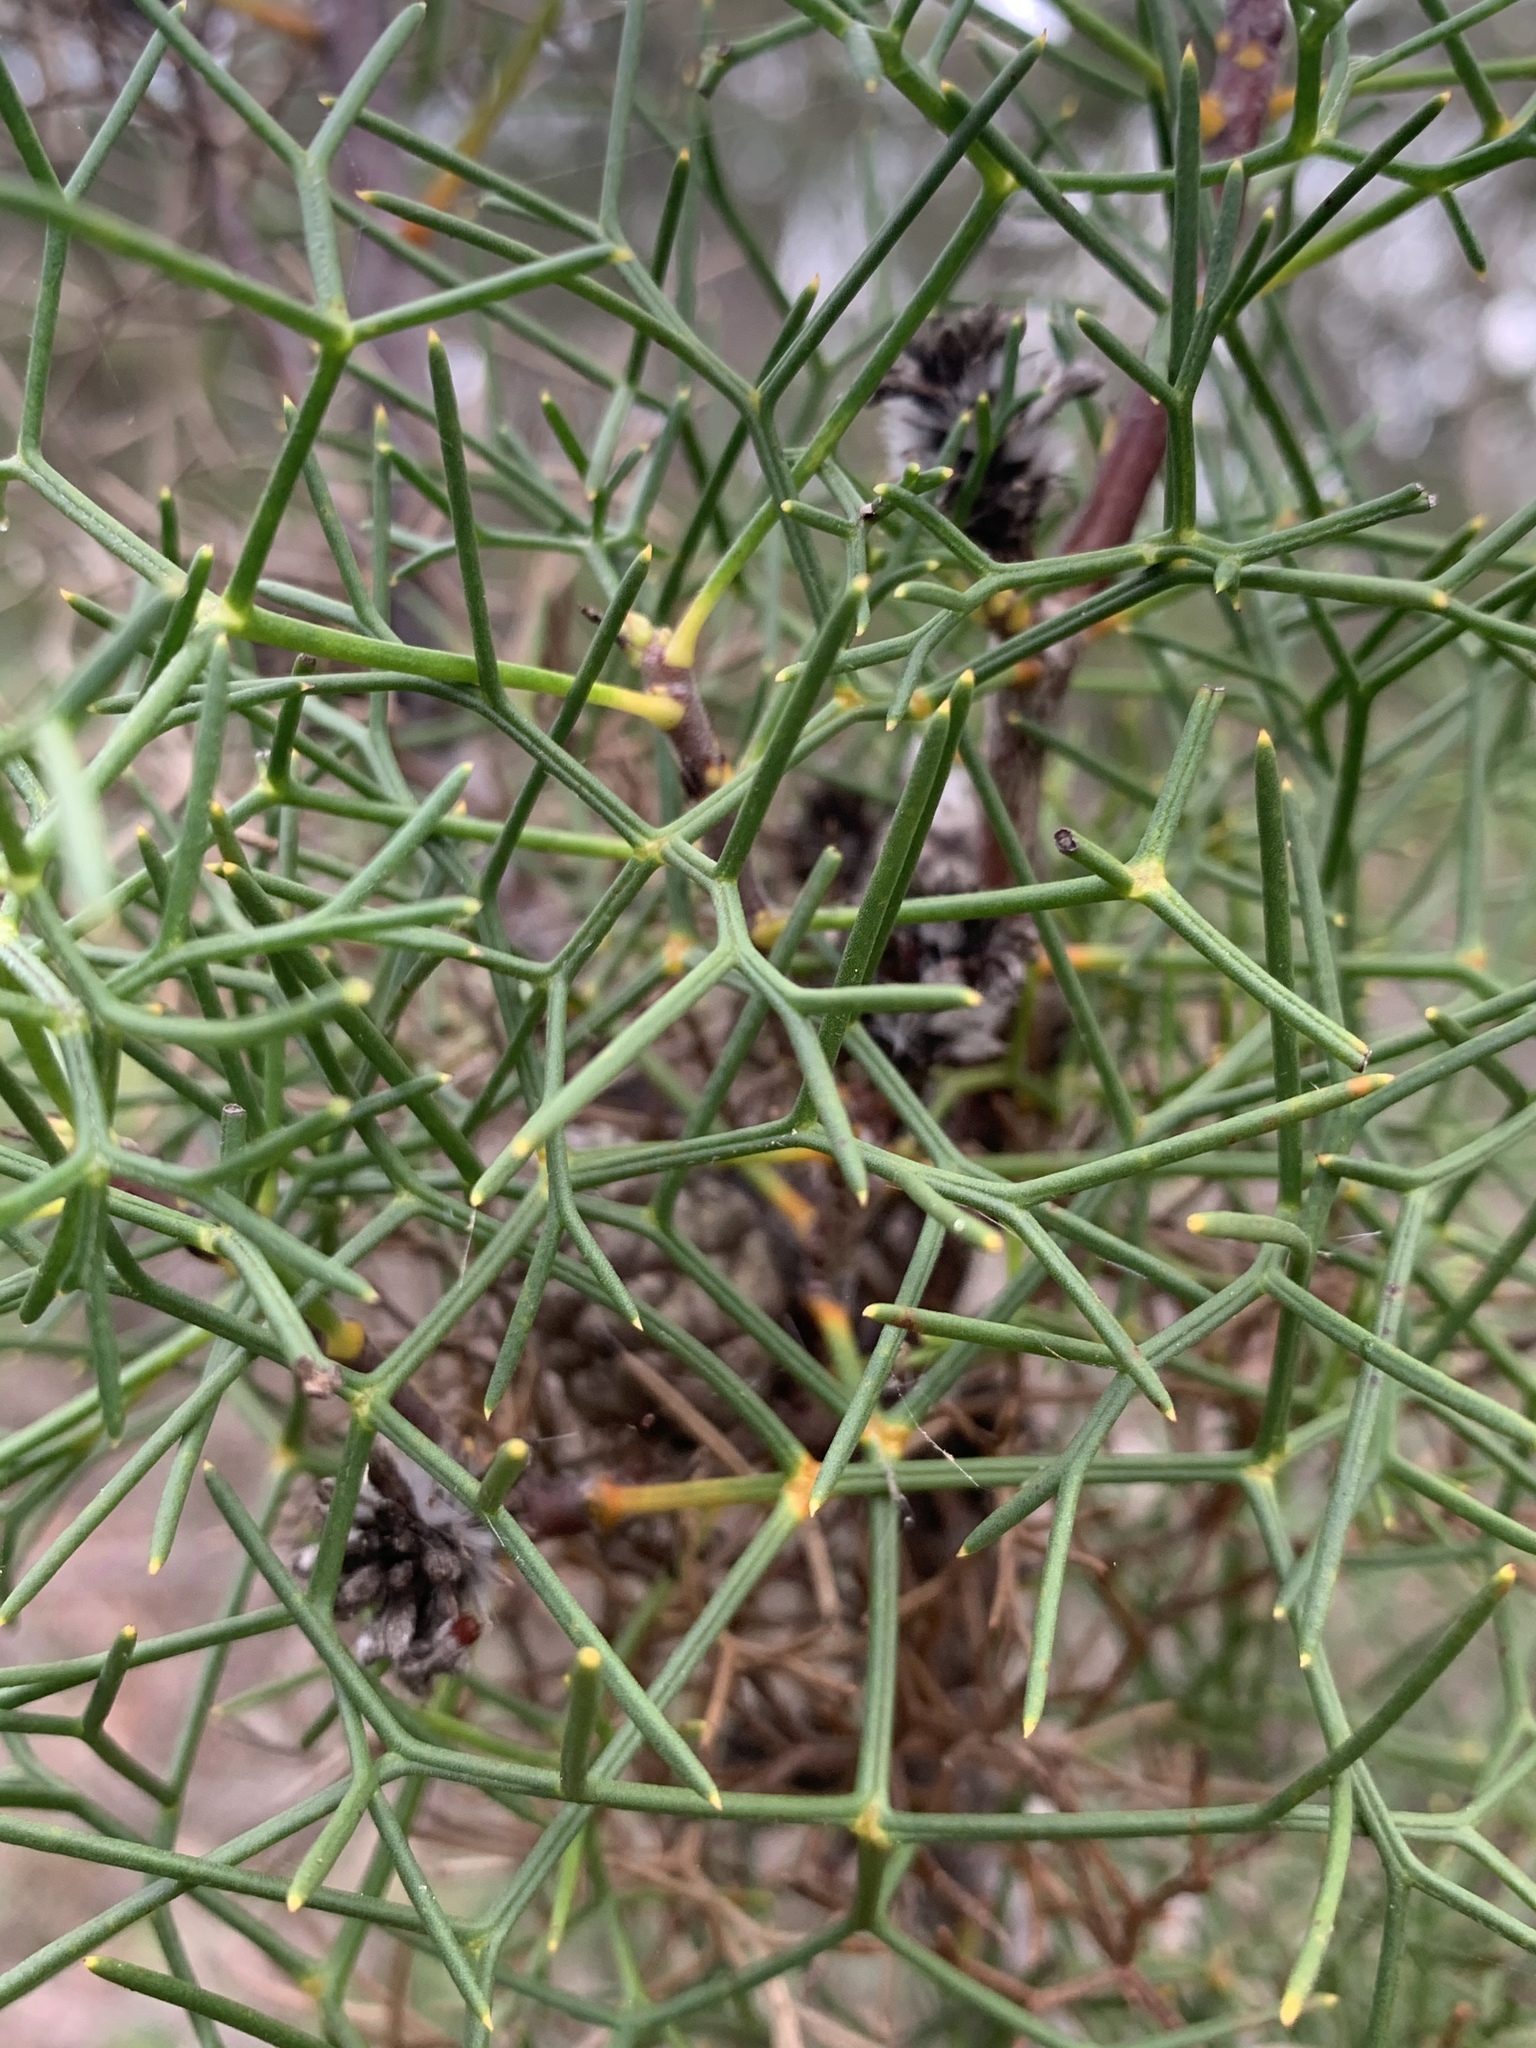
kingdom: Plantae
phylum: Tracheophyta
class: Magnoliopsida
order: Proteales
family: Proteaceae
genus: Petrophile
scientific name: Petrophile sessilis
